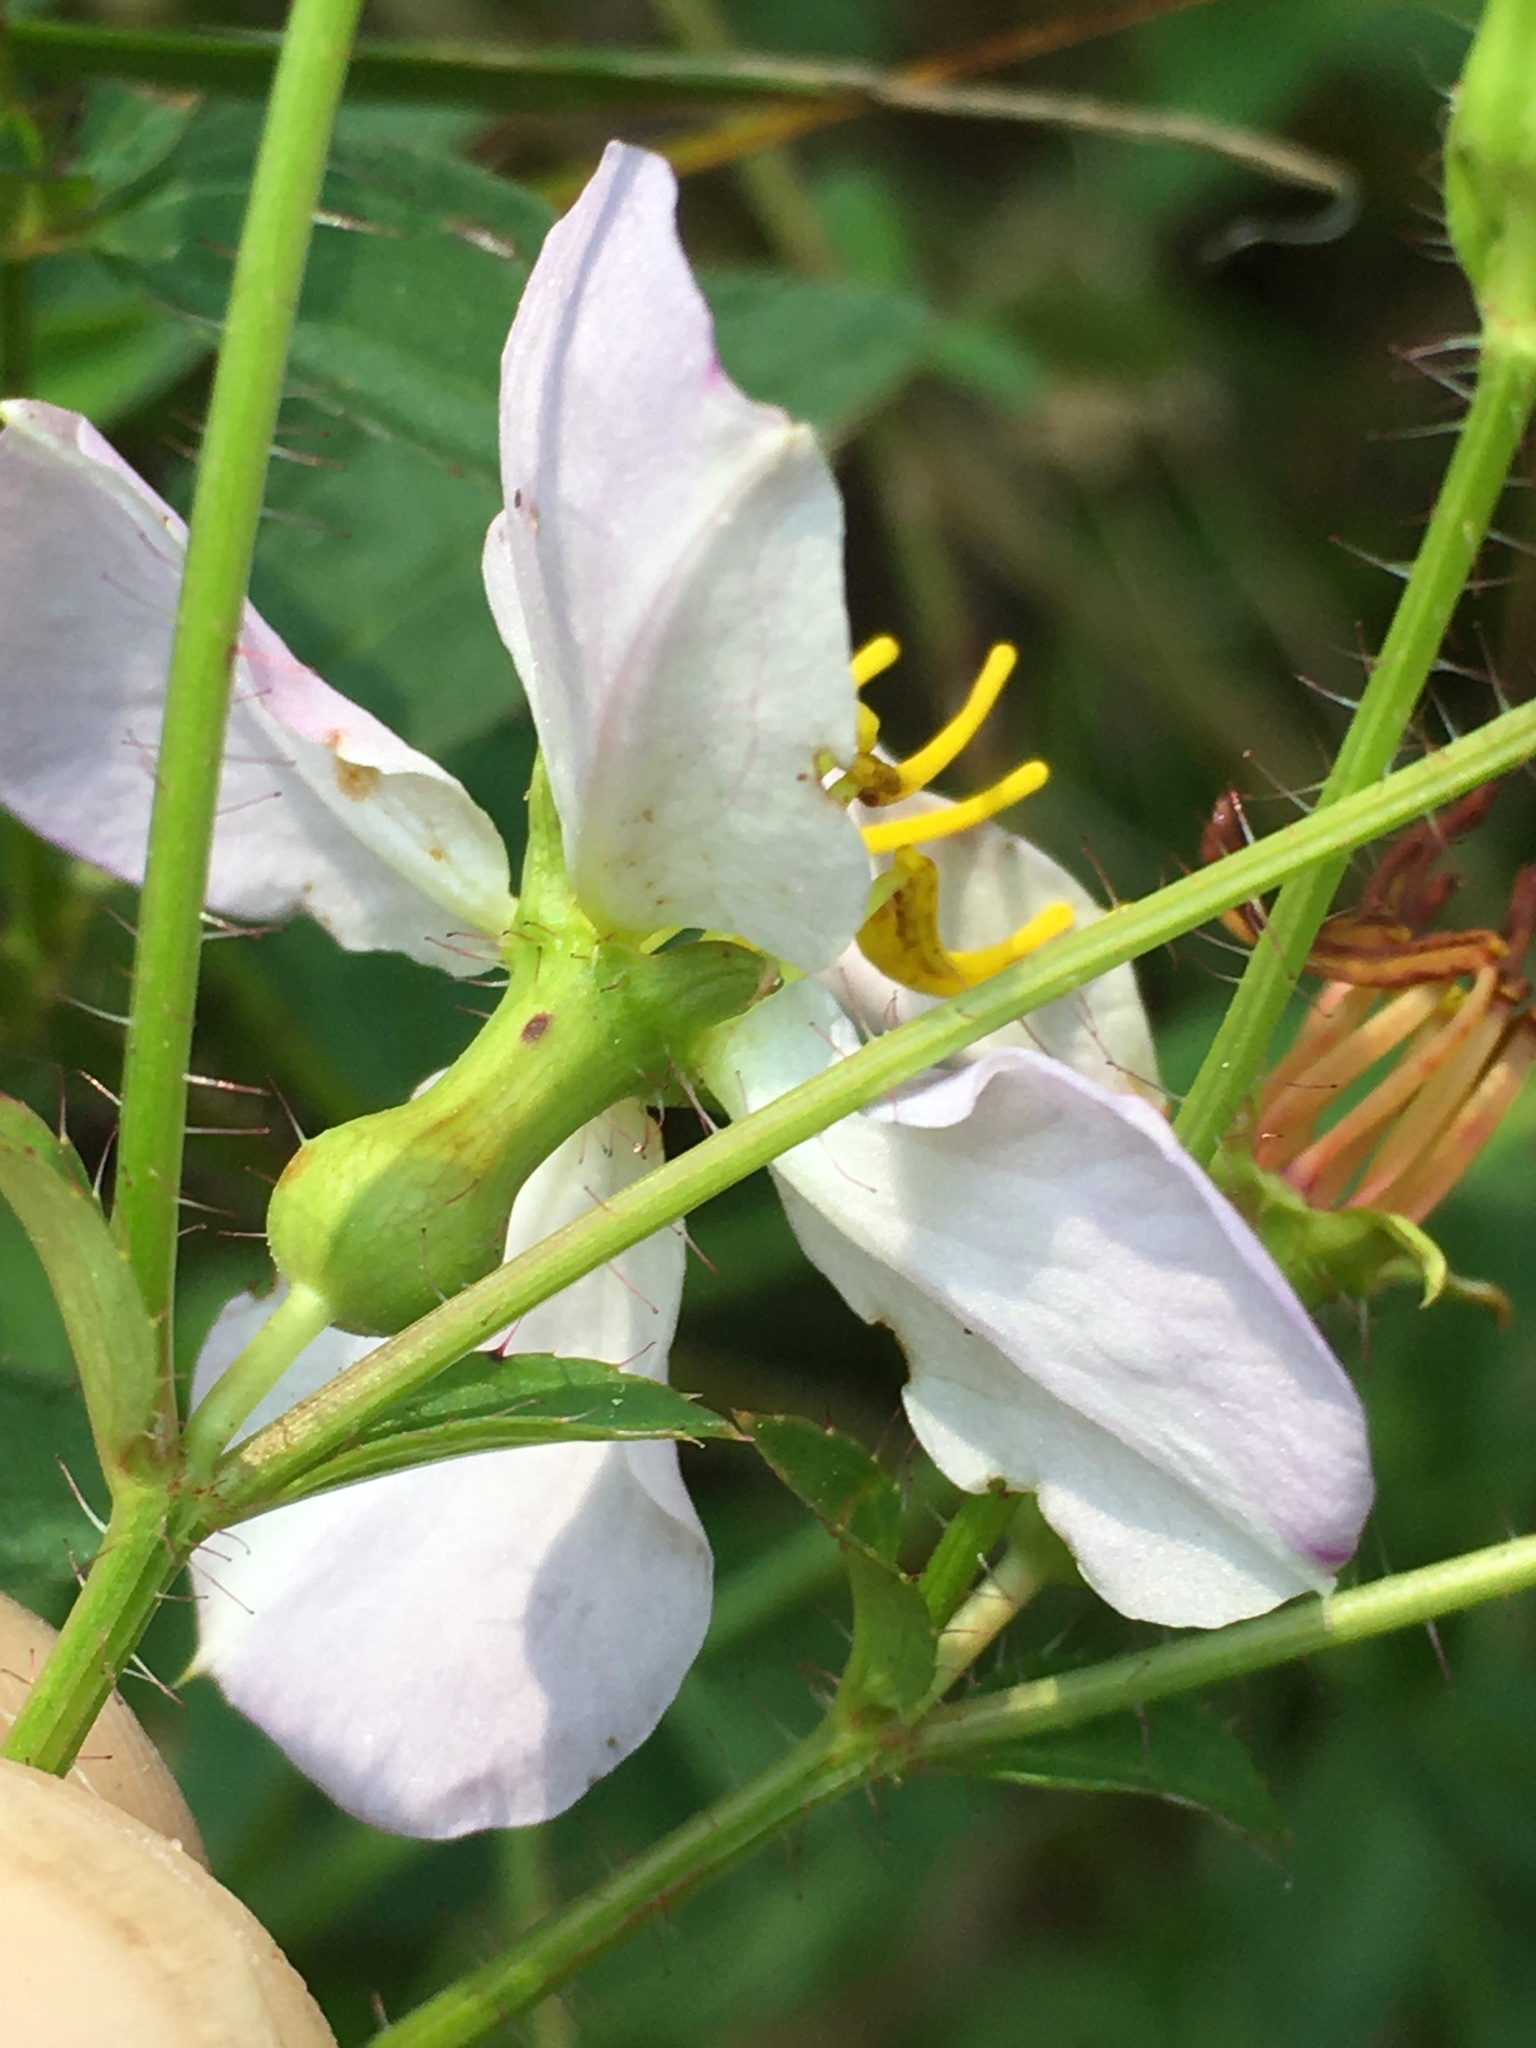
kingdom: Plantae
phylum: Tracheophyta
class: Magnoliopsida
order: Myrtales
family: Melastomataceae
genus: Rhexia
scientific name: Rhexia mariana
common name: Dull meadow-pitcher
